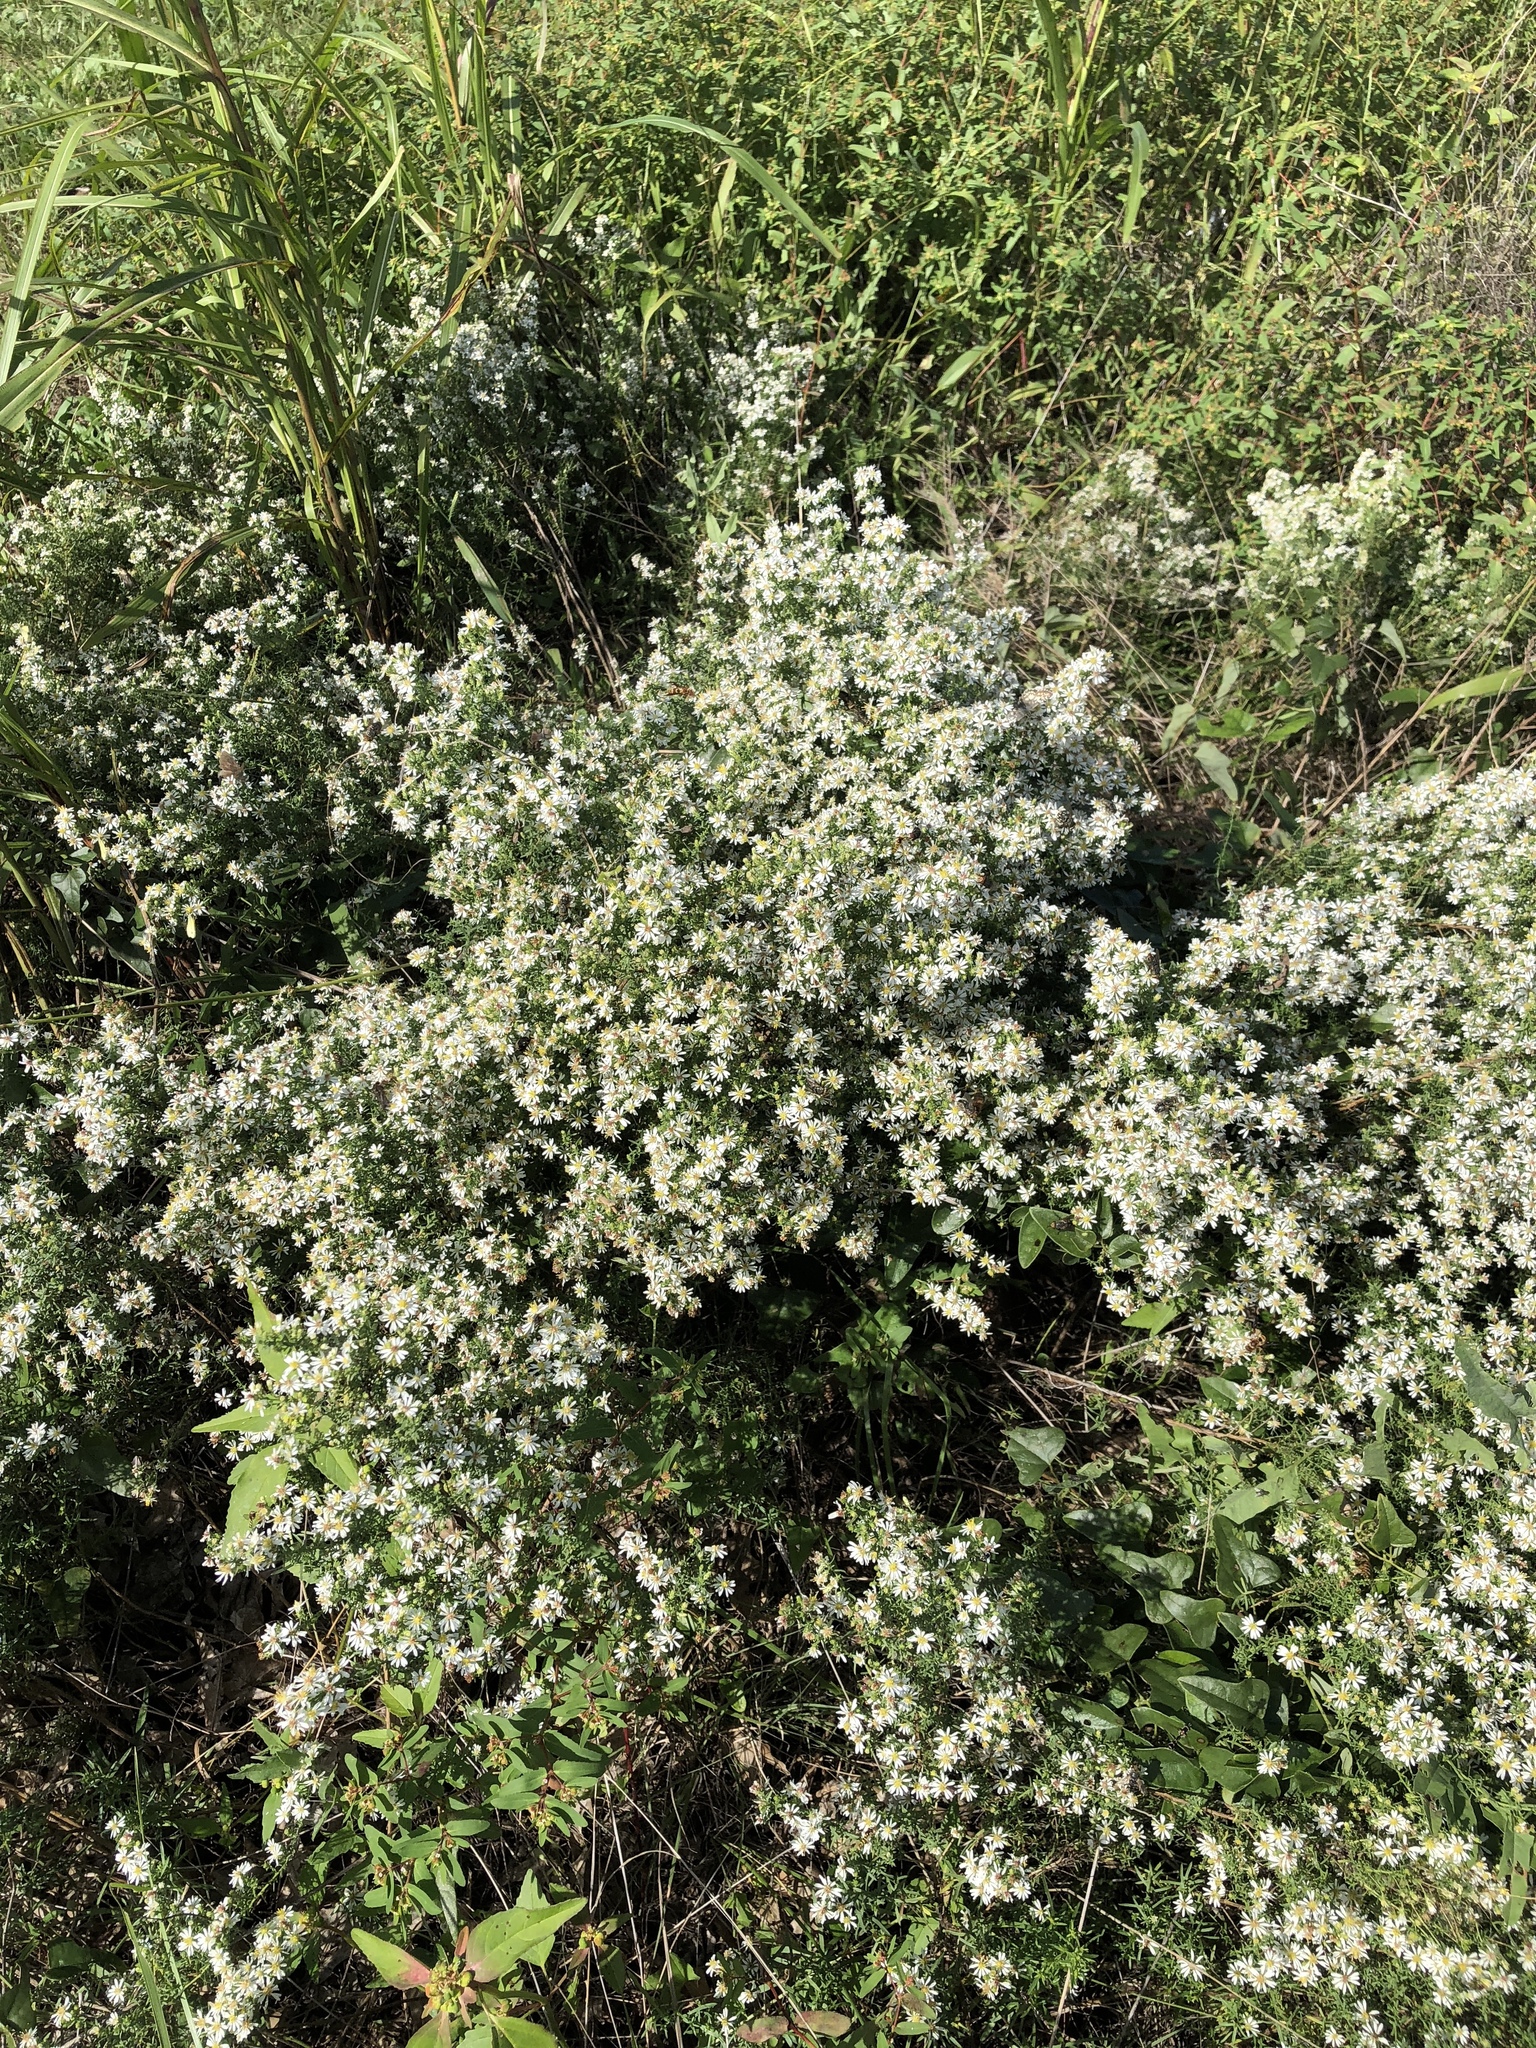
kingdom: Plantae
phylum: Tracheophyta
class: Magnoliopsida
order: Asterales
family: Asteraceae
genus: Symphyotrichum
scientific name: Symphyotrichum ericoides
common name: Heath aster
